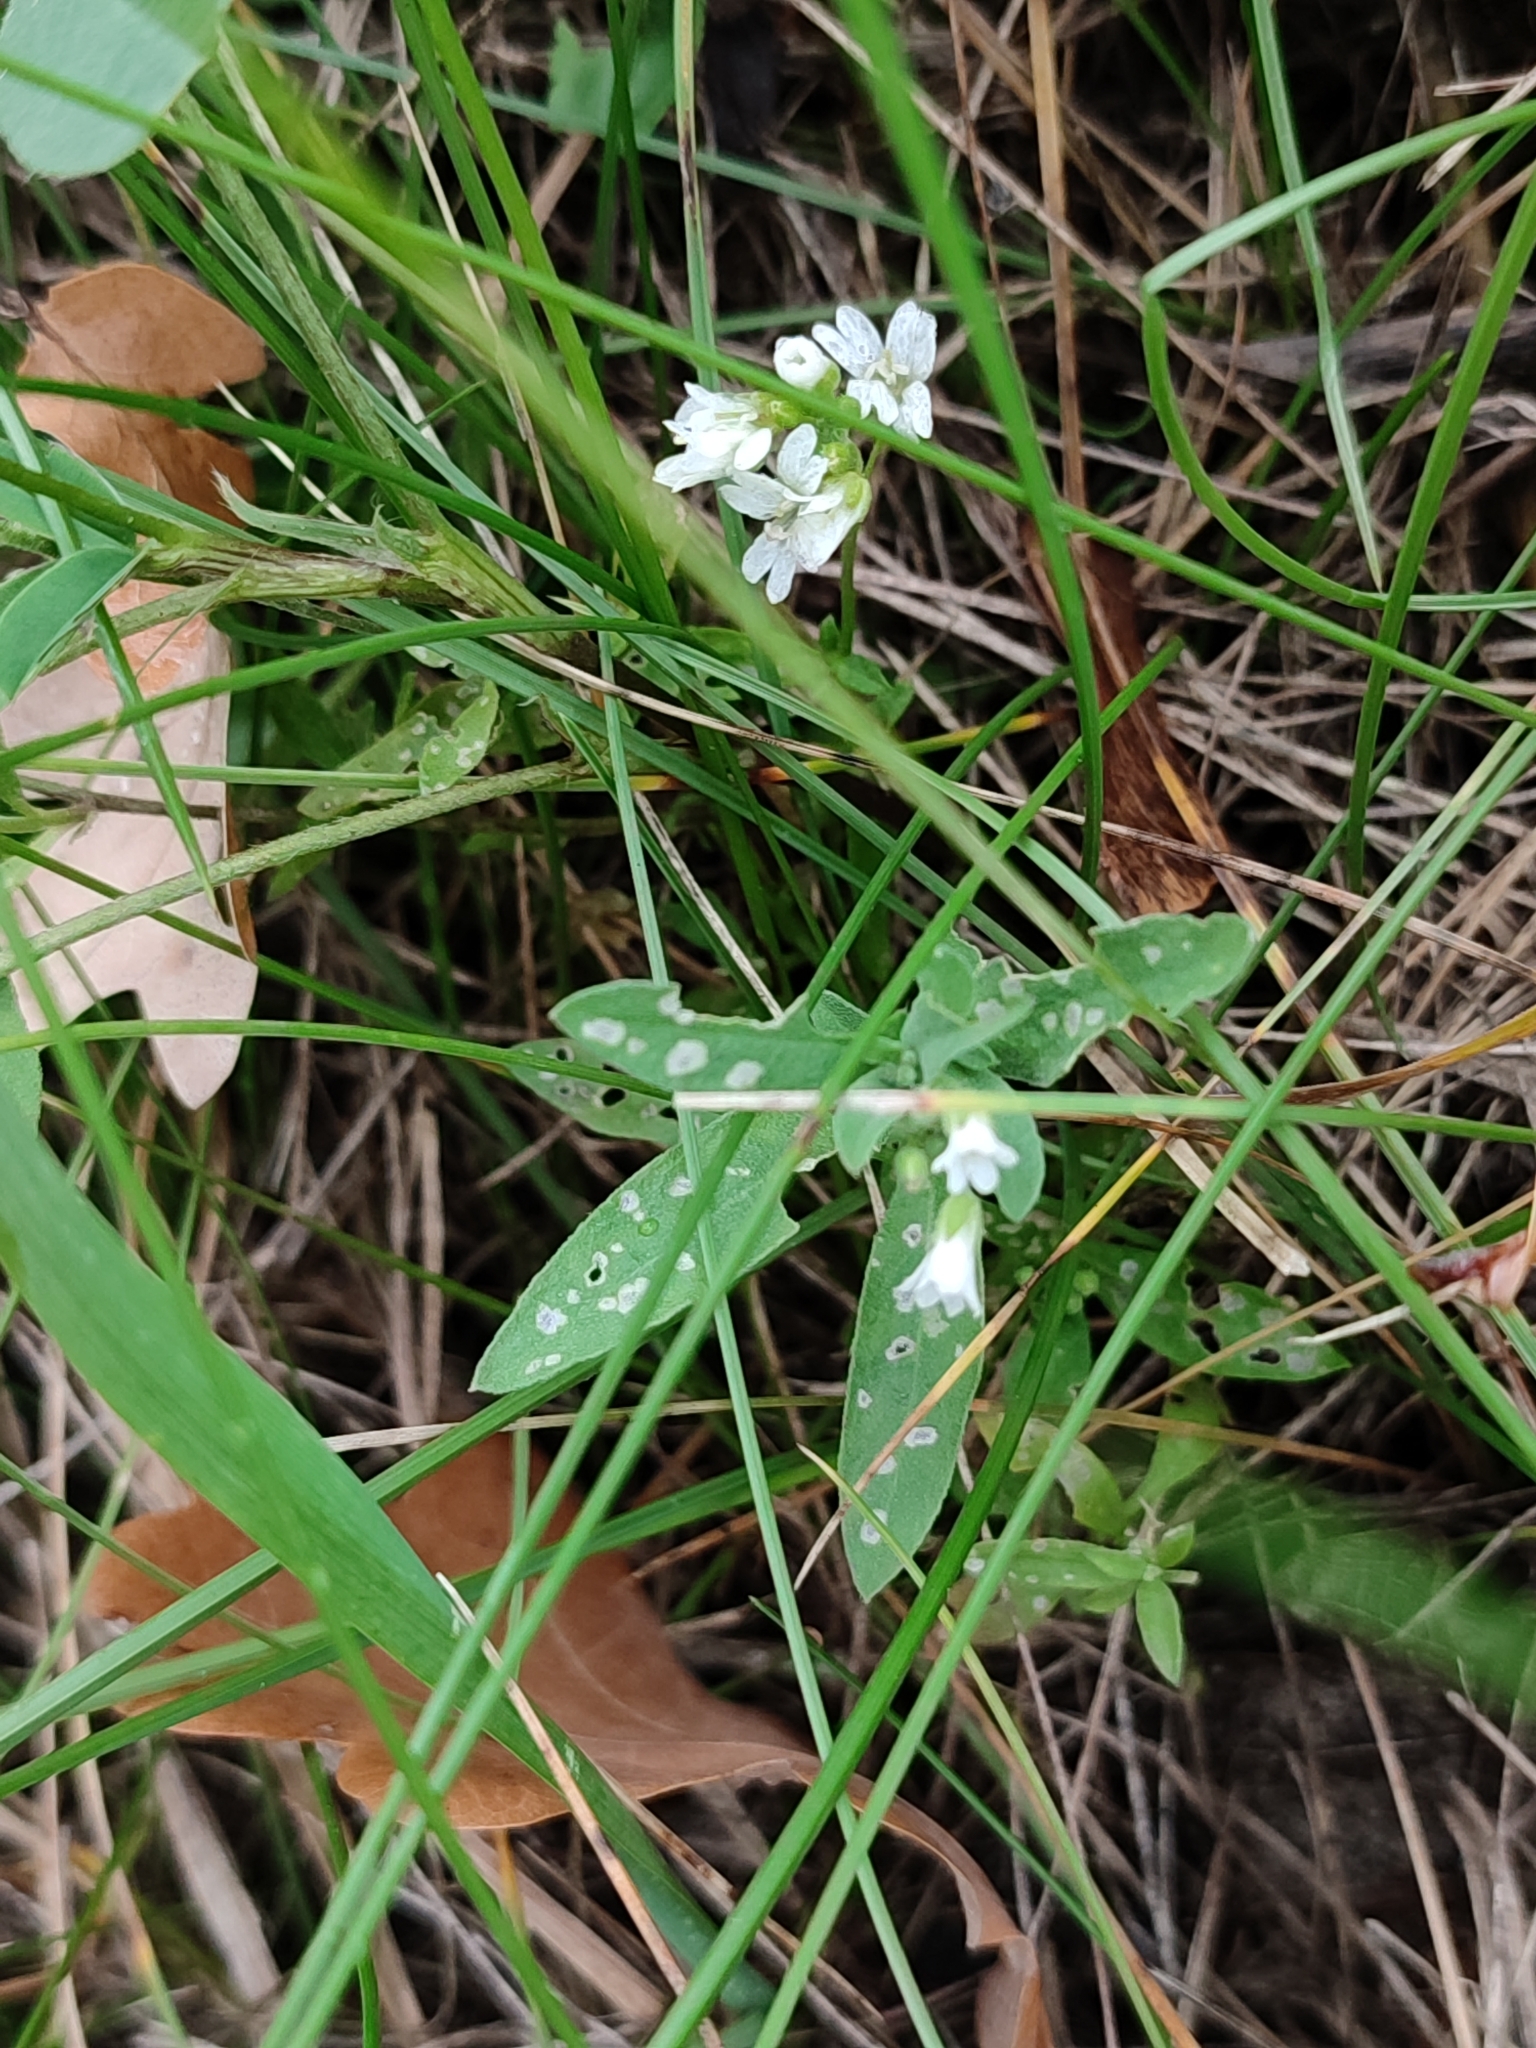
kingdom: Plantae
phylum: Tracheophyta
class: Magnoliopsida
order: Brassicales
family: Brassicaceae
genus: Berteroa
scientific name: Berteroa incana
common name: Hoary alison
